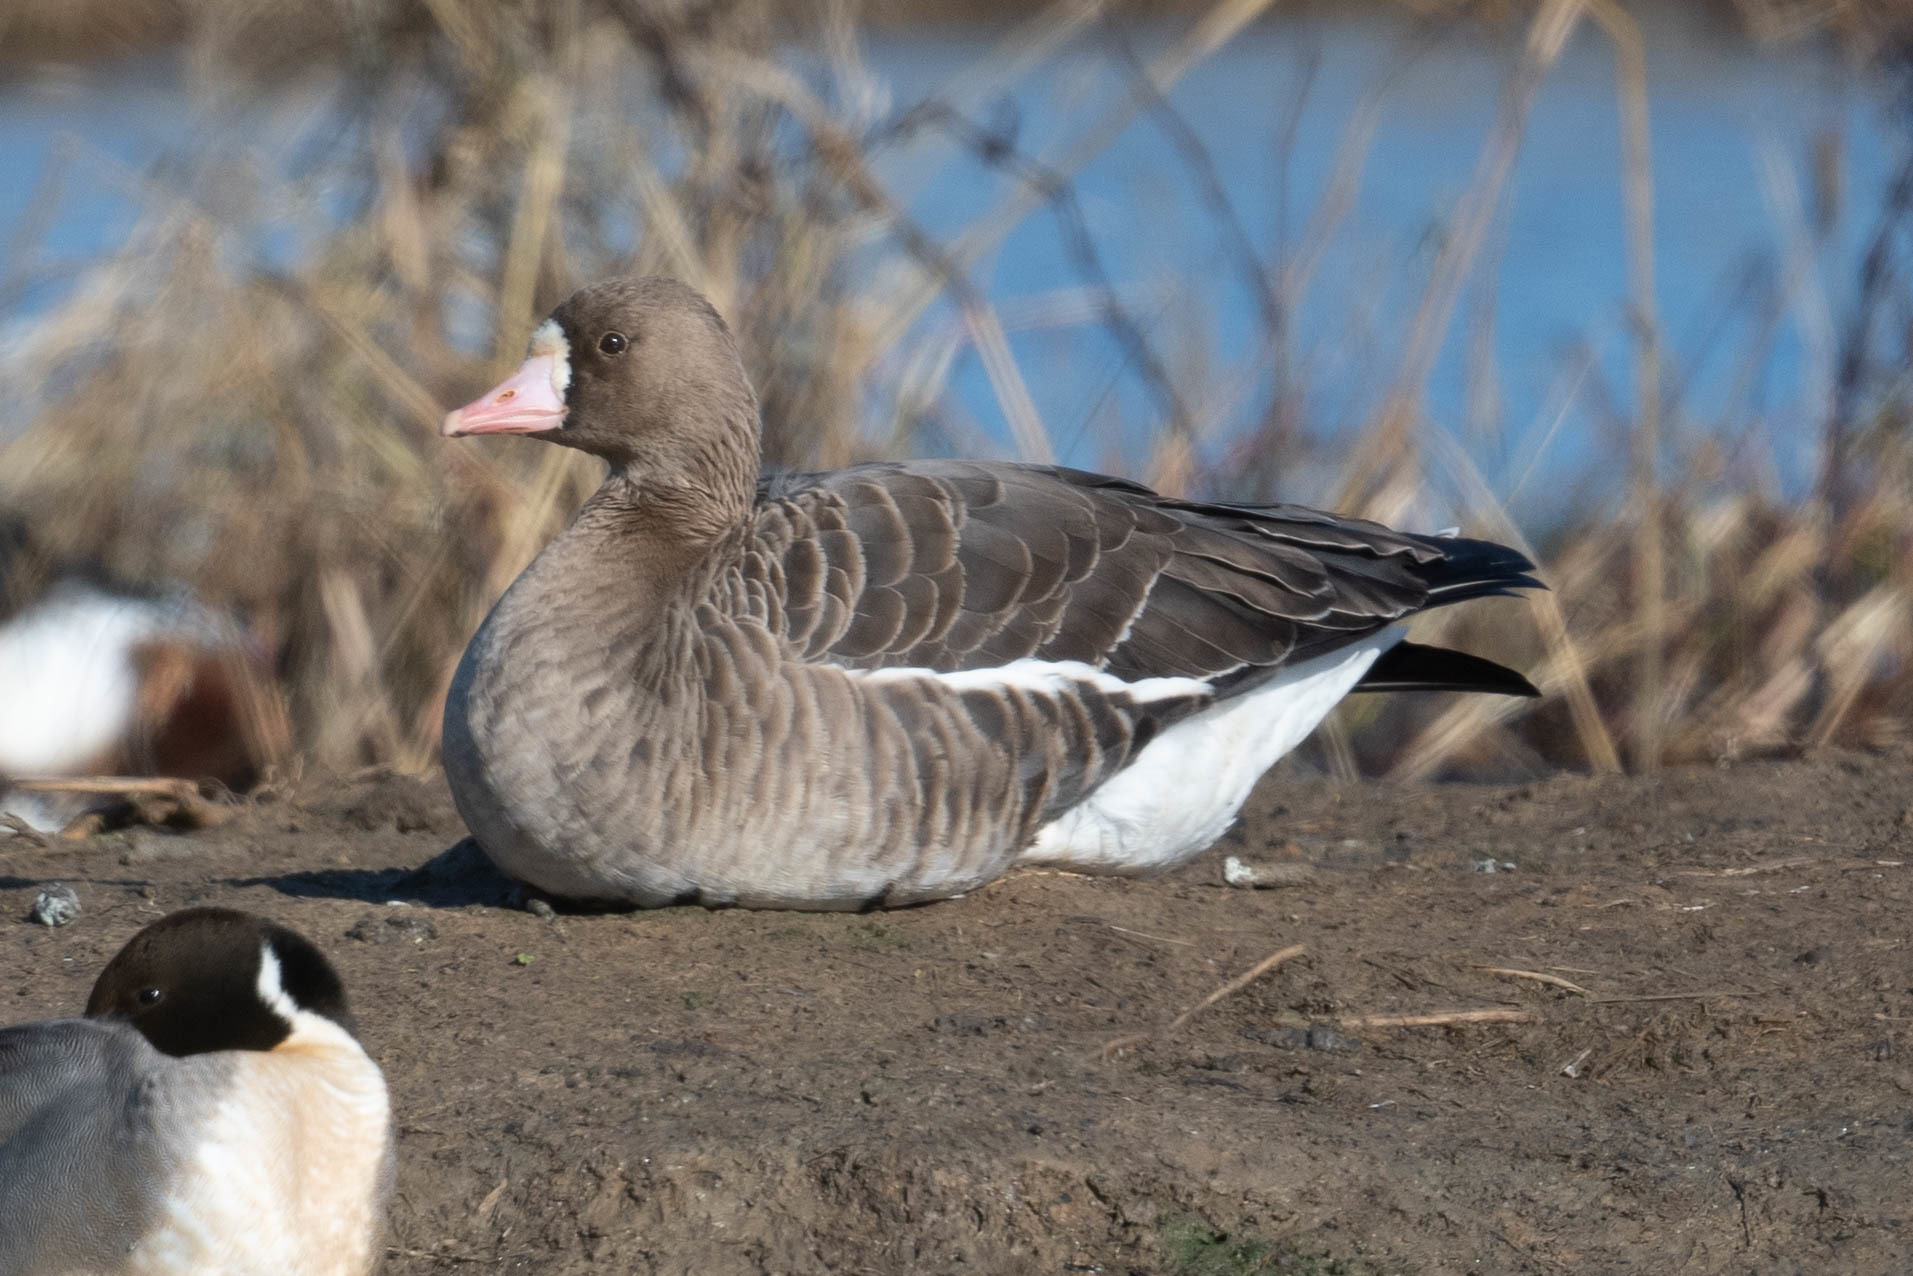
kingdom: Animalia
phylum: Chordata
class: Aves
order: Anseriformes
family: Anatidae
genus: Anser
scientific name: Anser albifrons
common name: Greater white-fronted goose
